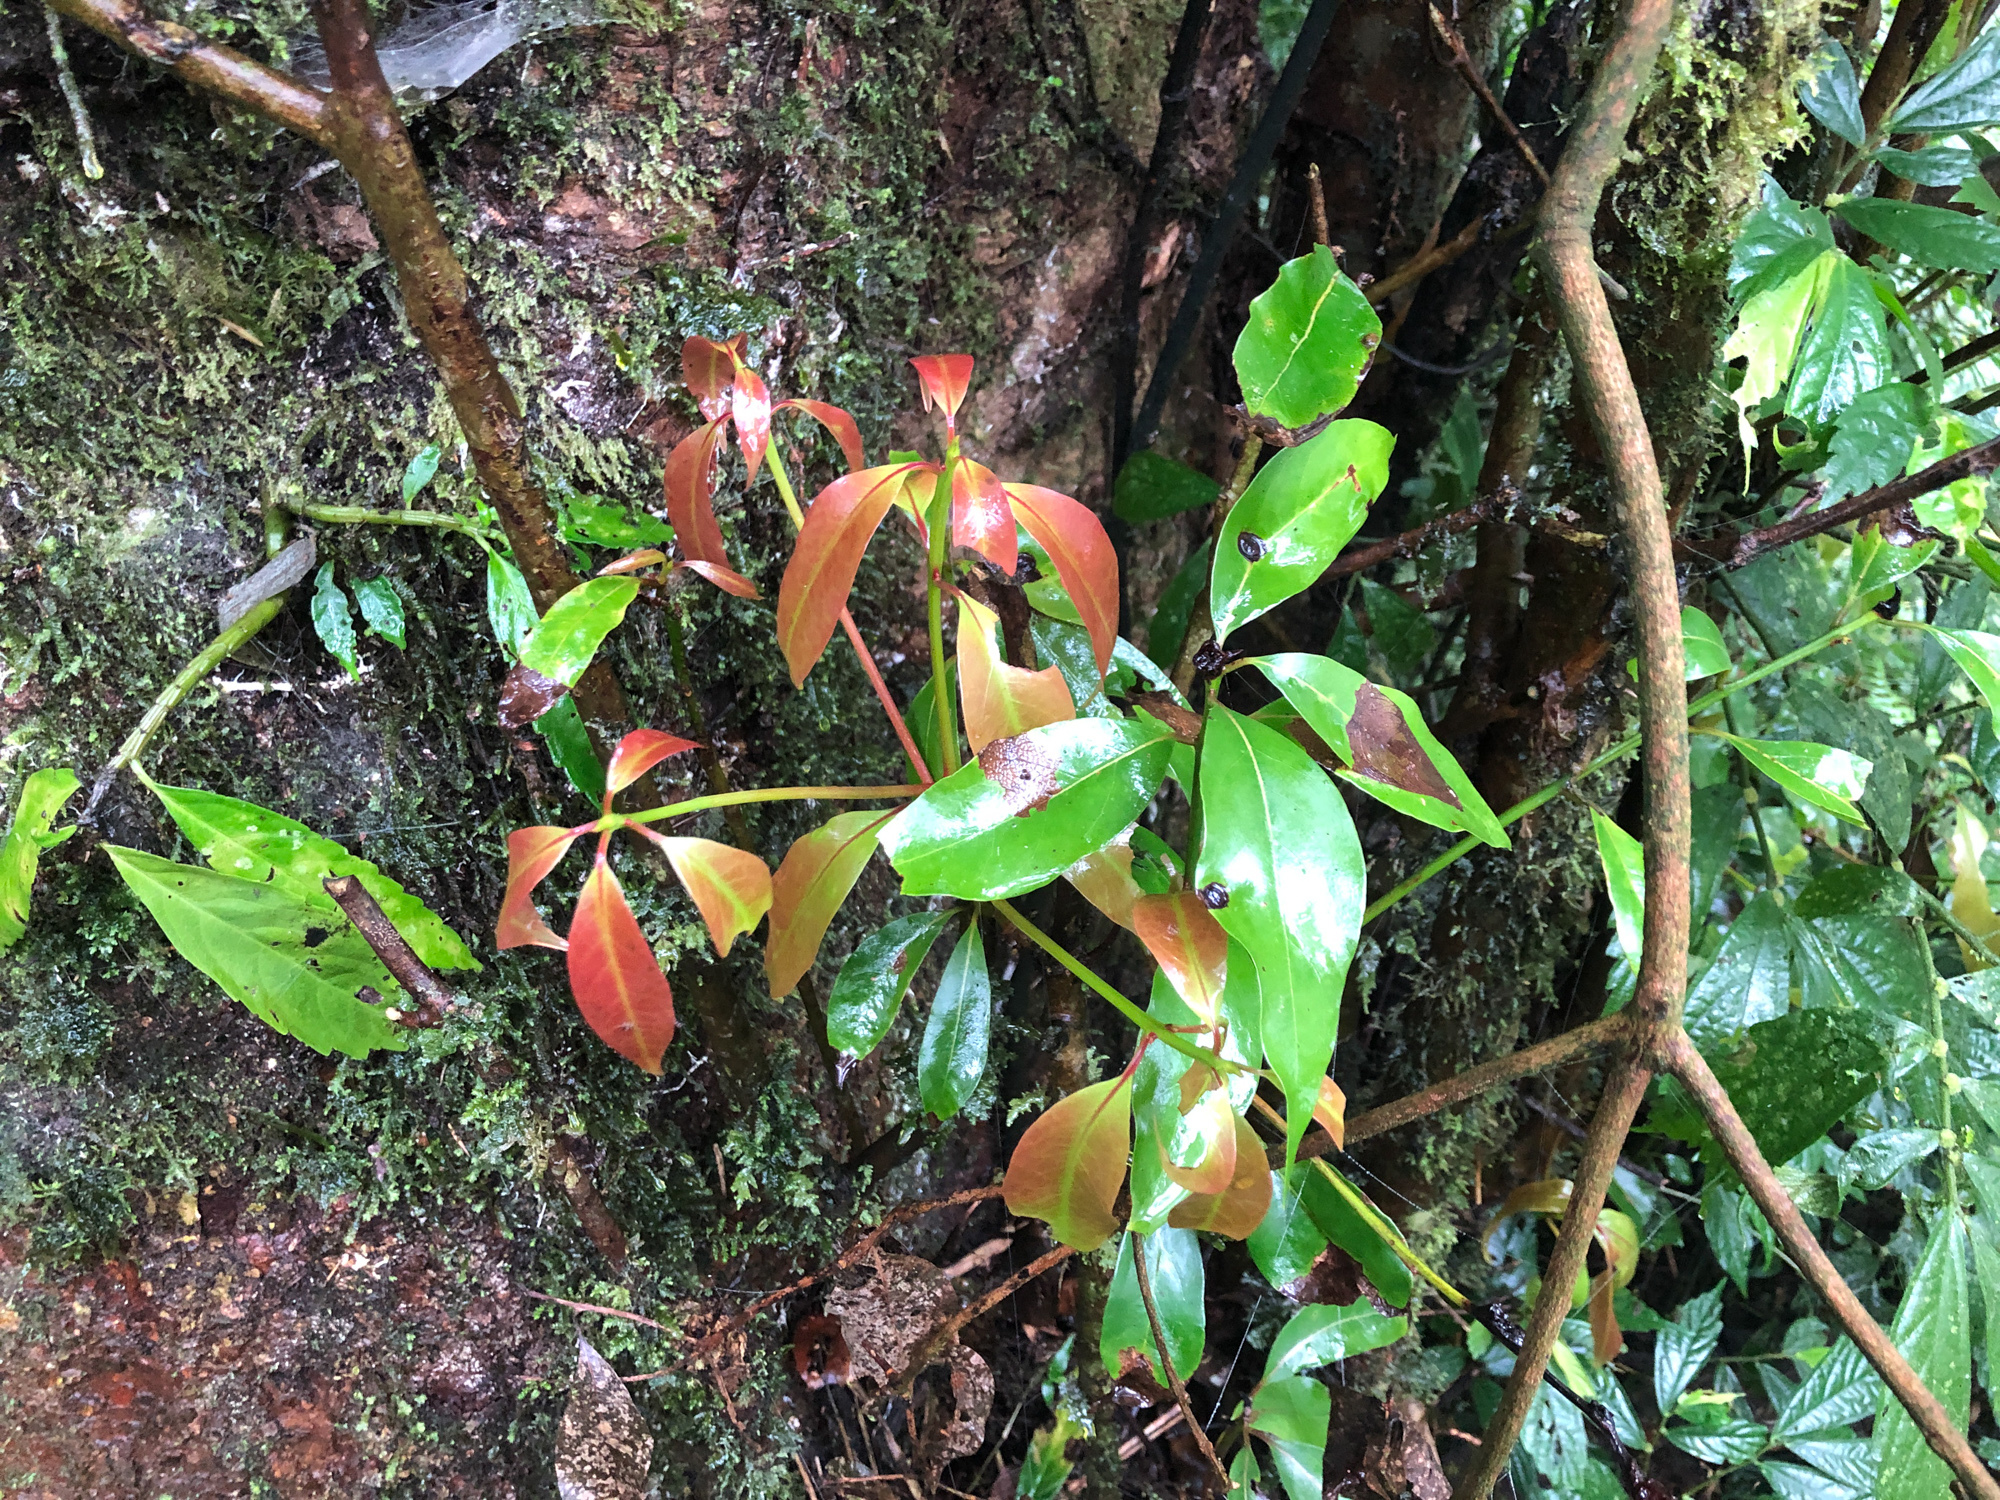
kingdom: Plantae
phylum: Tracheophyta
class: Magnoliopsida
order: Laurales
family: Lauraceae
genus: Beilschmiedia
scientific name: Beilschmiedia erythrophloia
